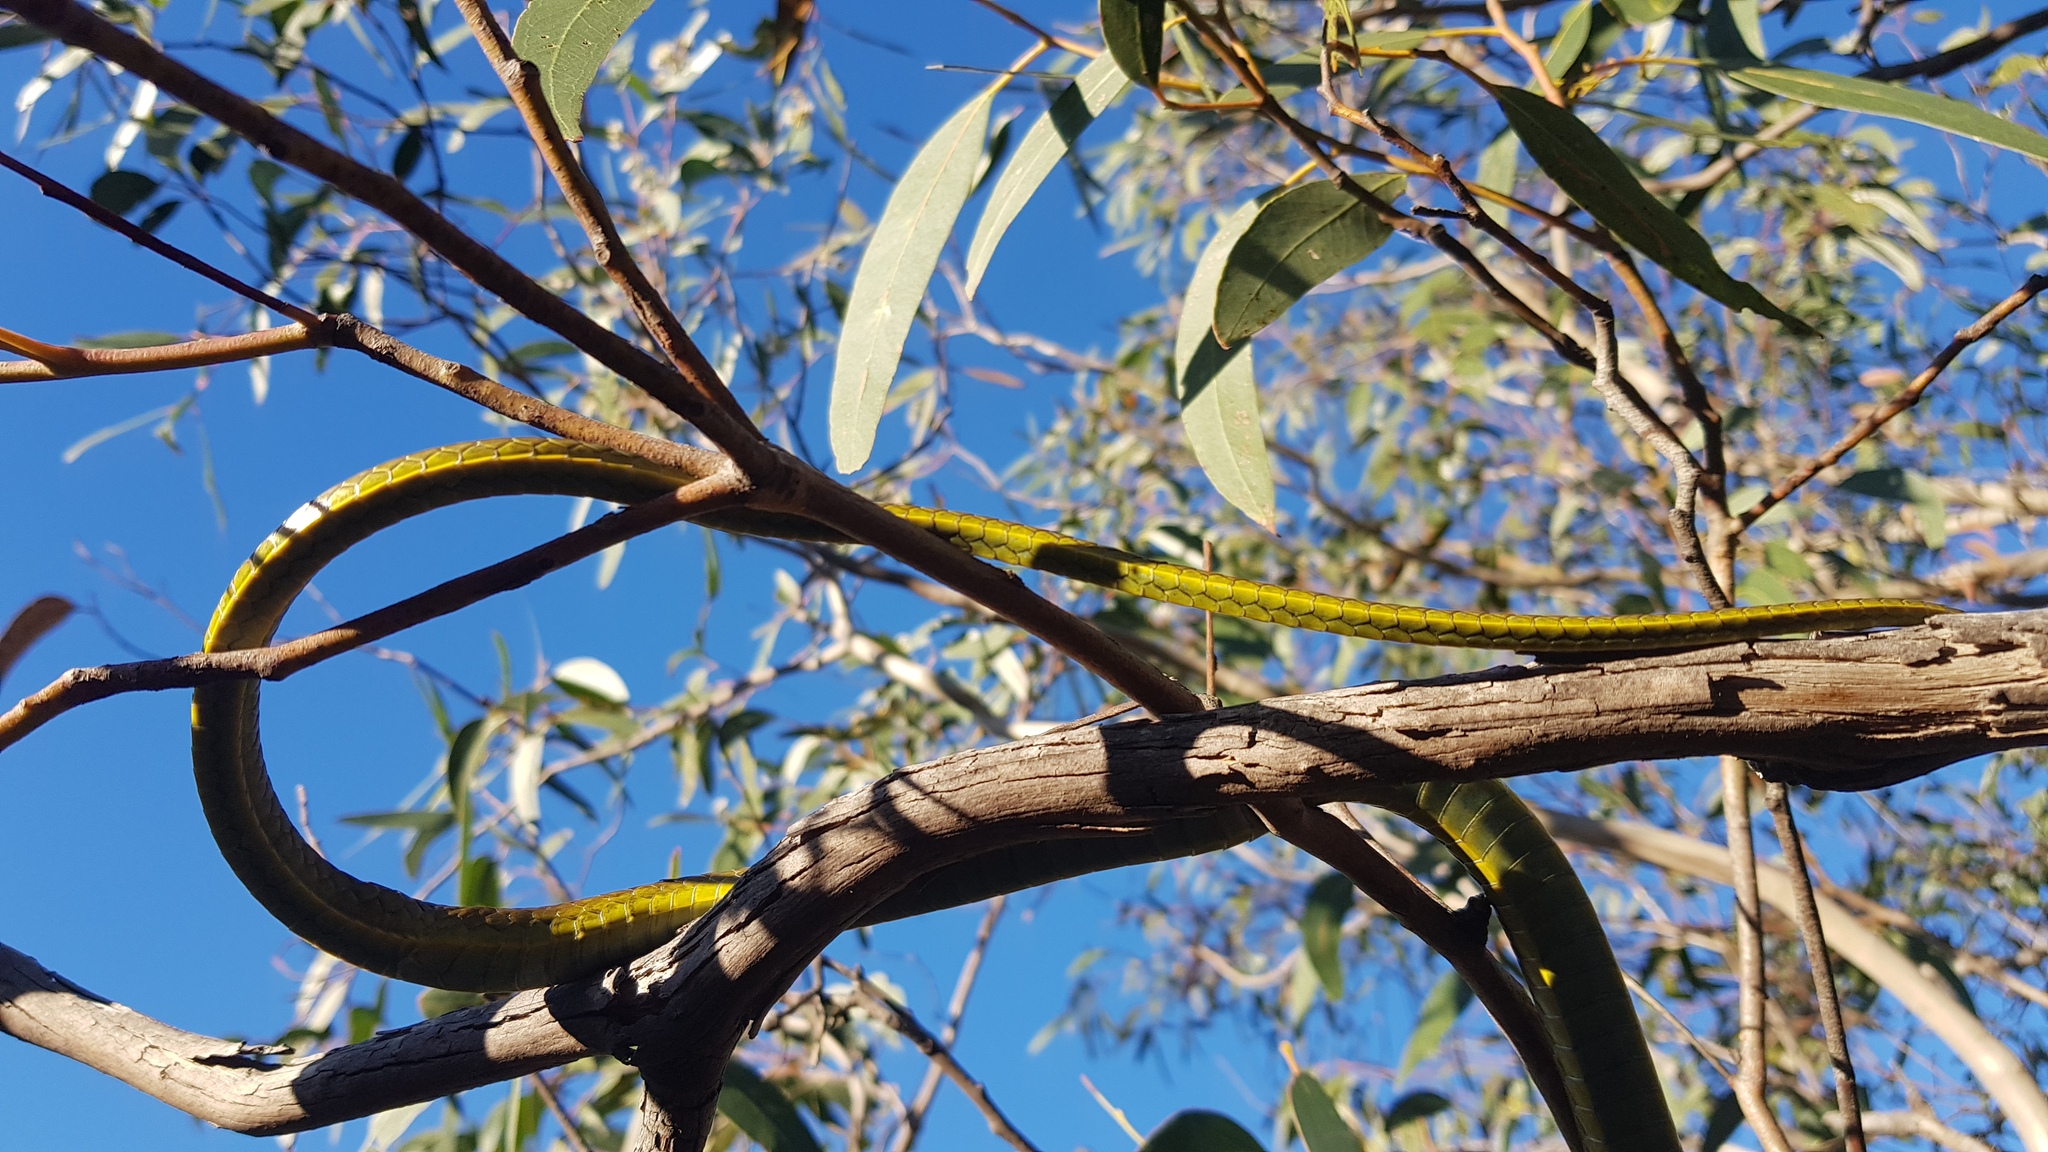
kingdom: Animalia
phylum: Chordata
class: Squamata
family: Colubridae
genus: Dendrelaphis
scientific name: Dendrelaphis punctulatus
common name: Common tree snake
